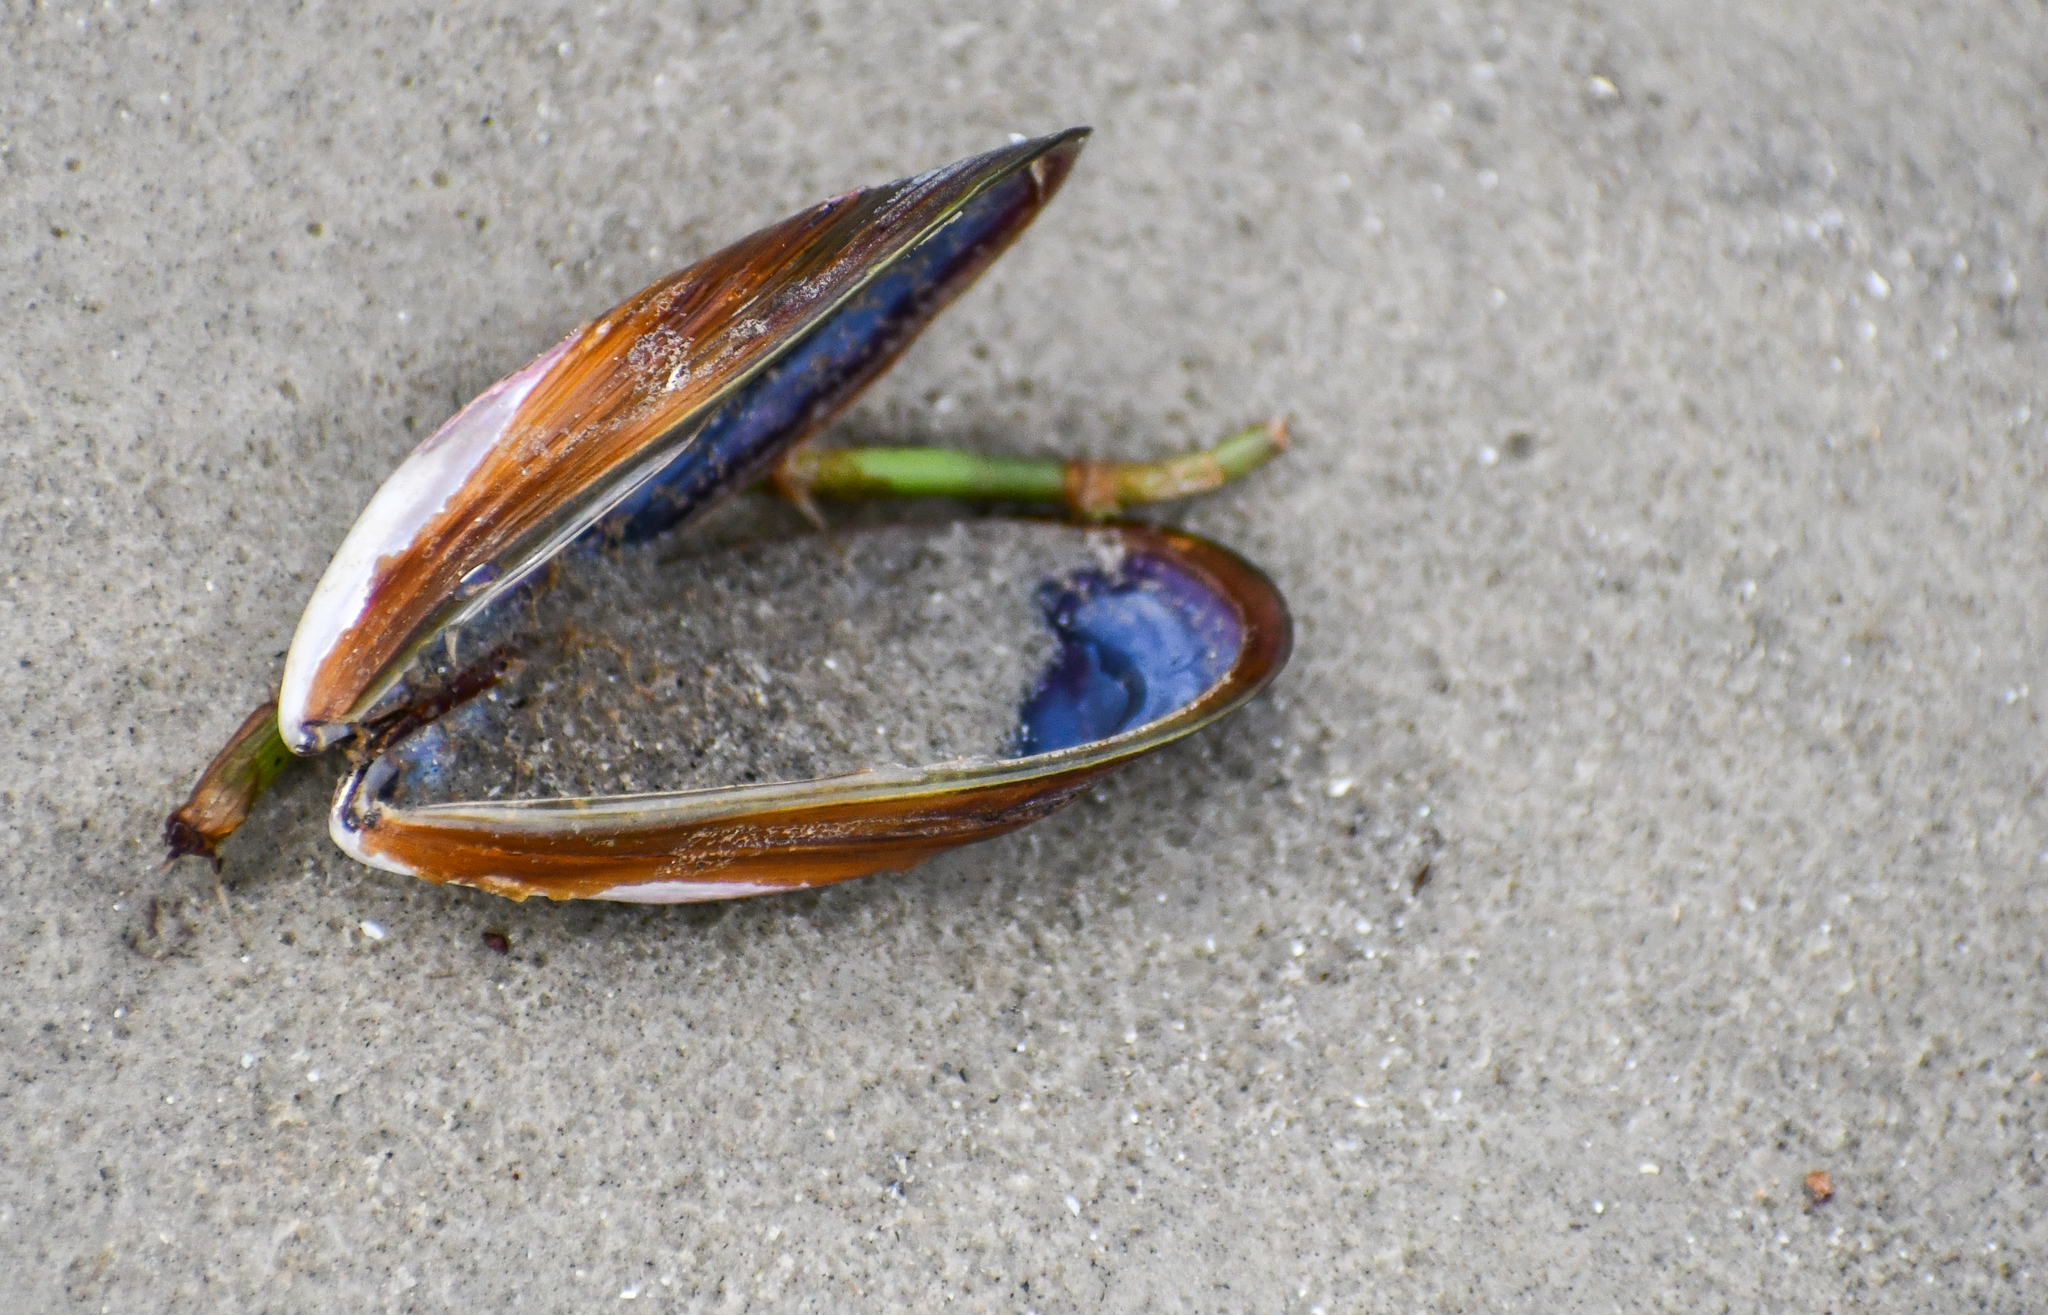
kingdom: Animalia
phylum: Mollusca
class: Bivalvia
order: Mytilida
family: Mytilidae
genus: Perna
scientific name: Perna perna
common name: Mexilhao mussel
